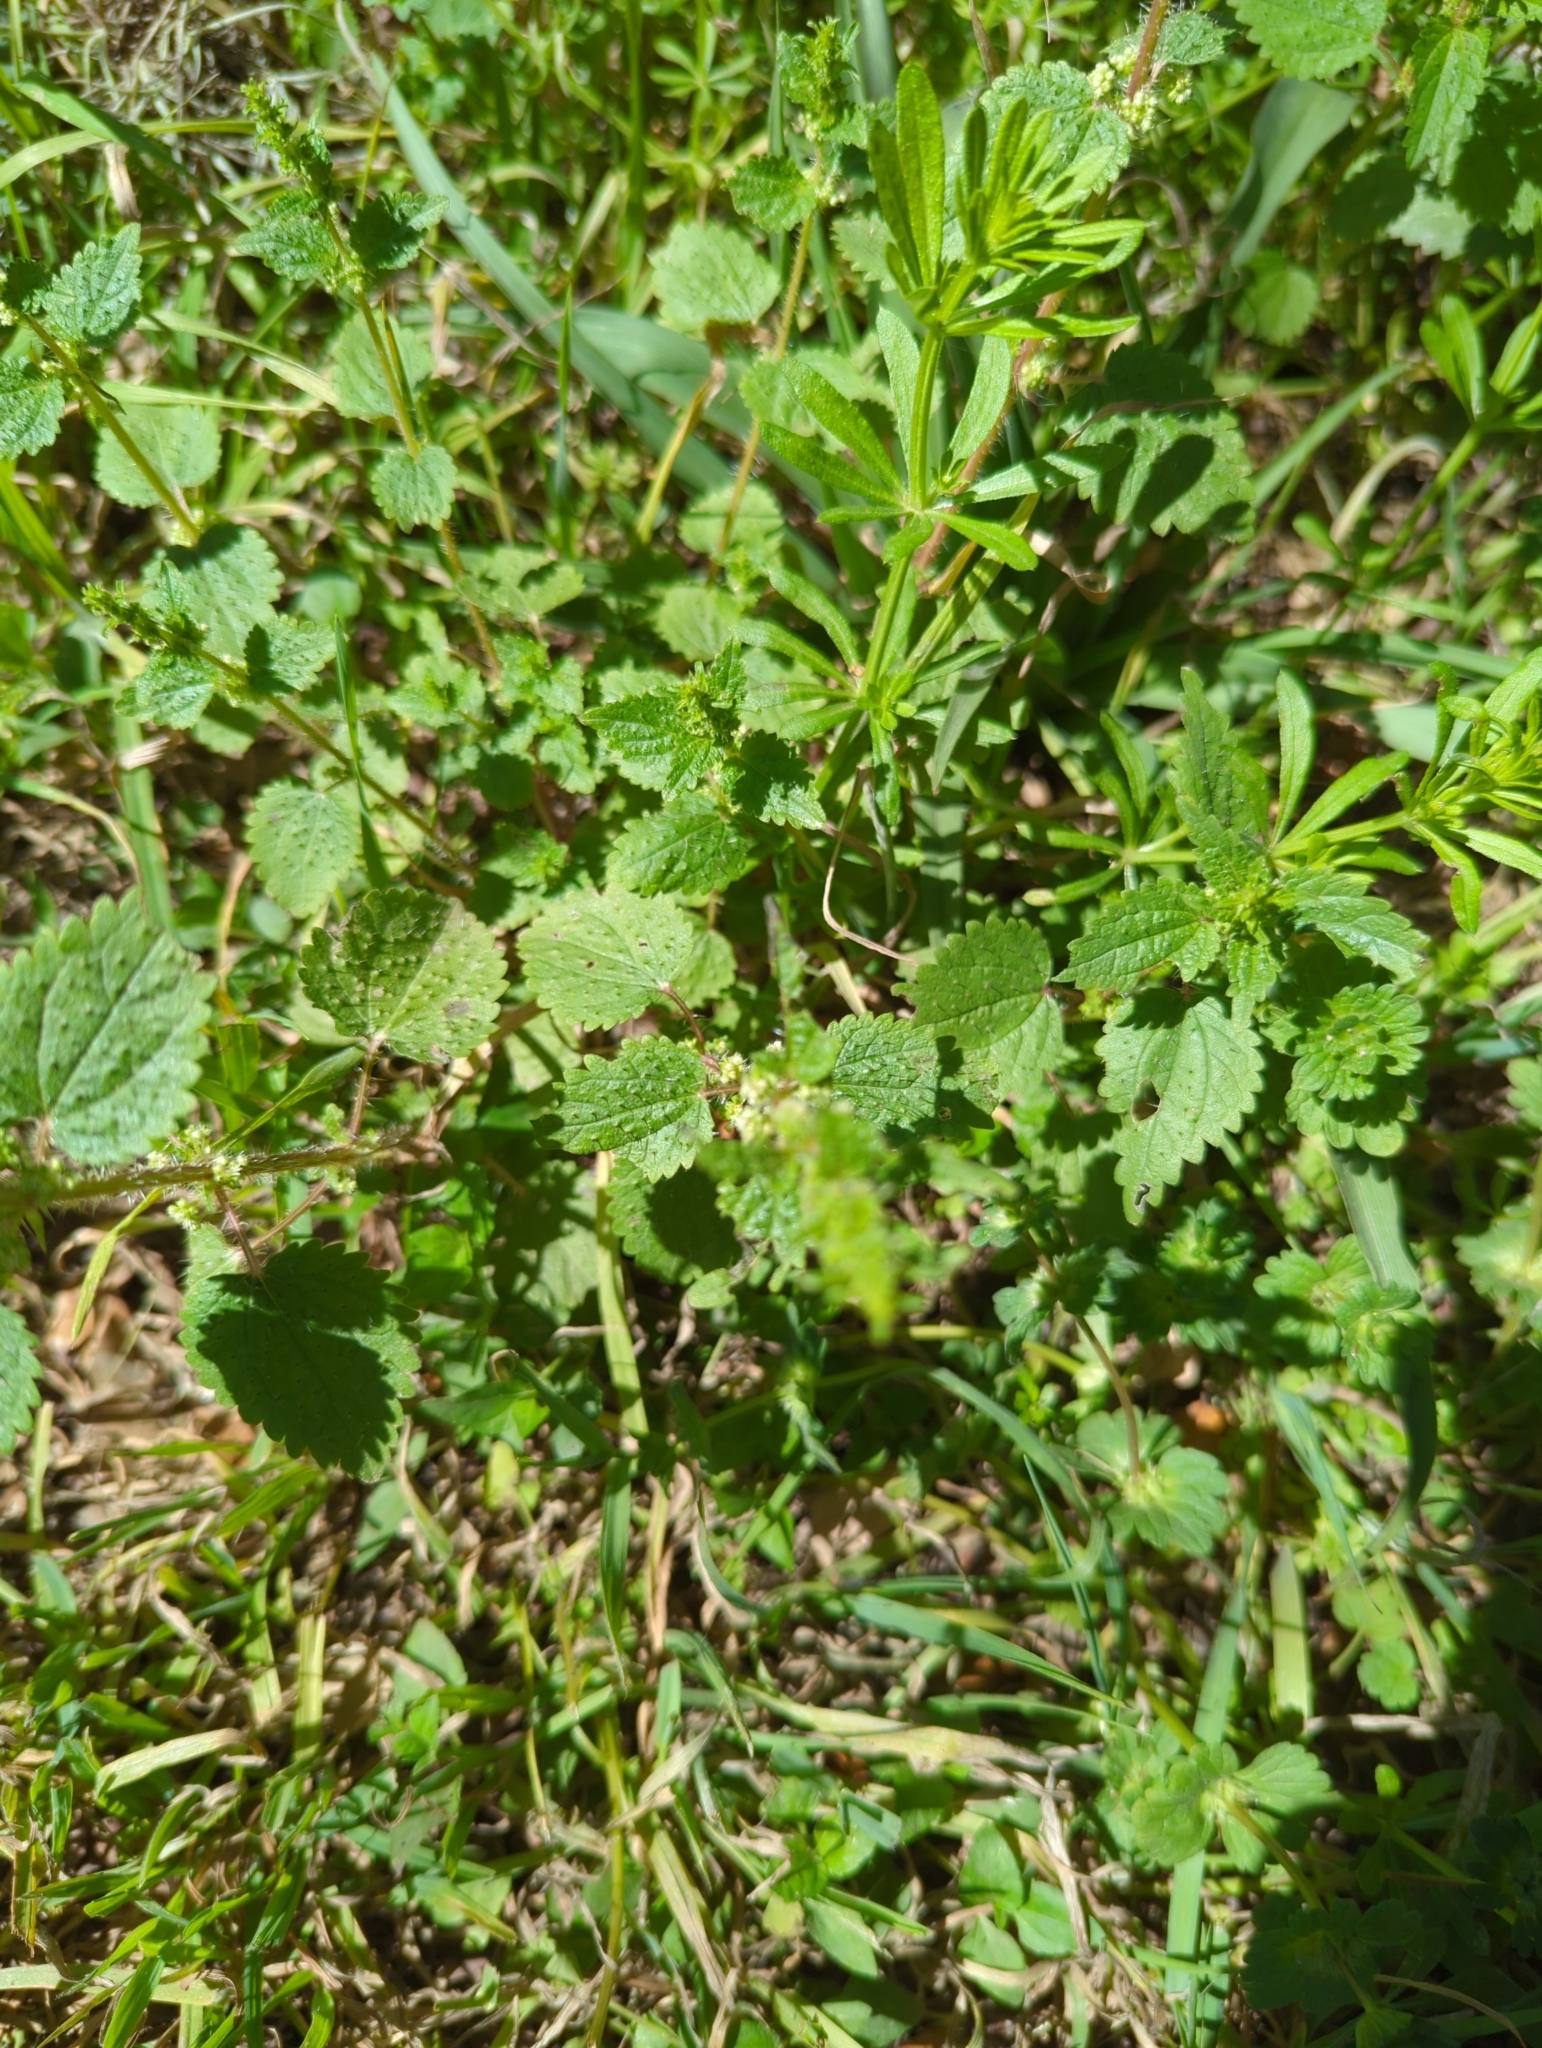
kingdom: Plantae
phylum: Tracheophyta
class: Magnoliopsida
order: Rosales
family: Urticaceae
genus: Urtica
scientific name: Urtica chamaedryoides
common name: Heart-leaf nettle
